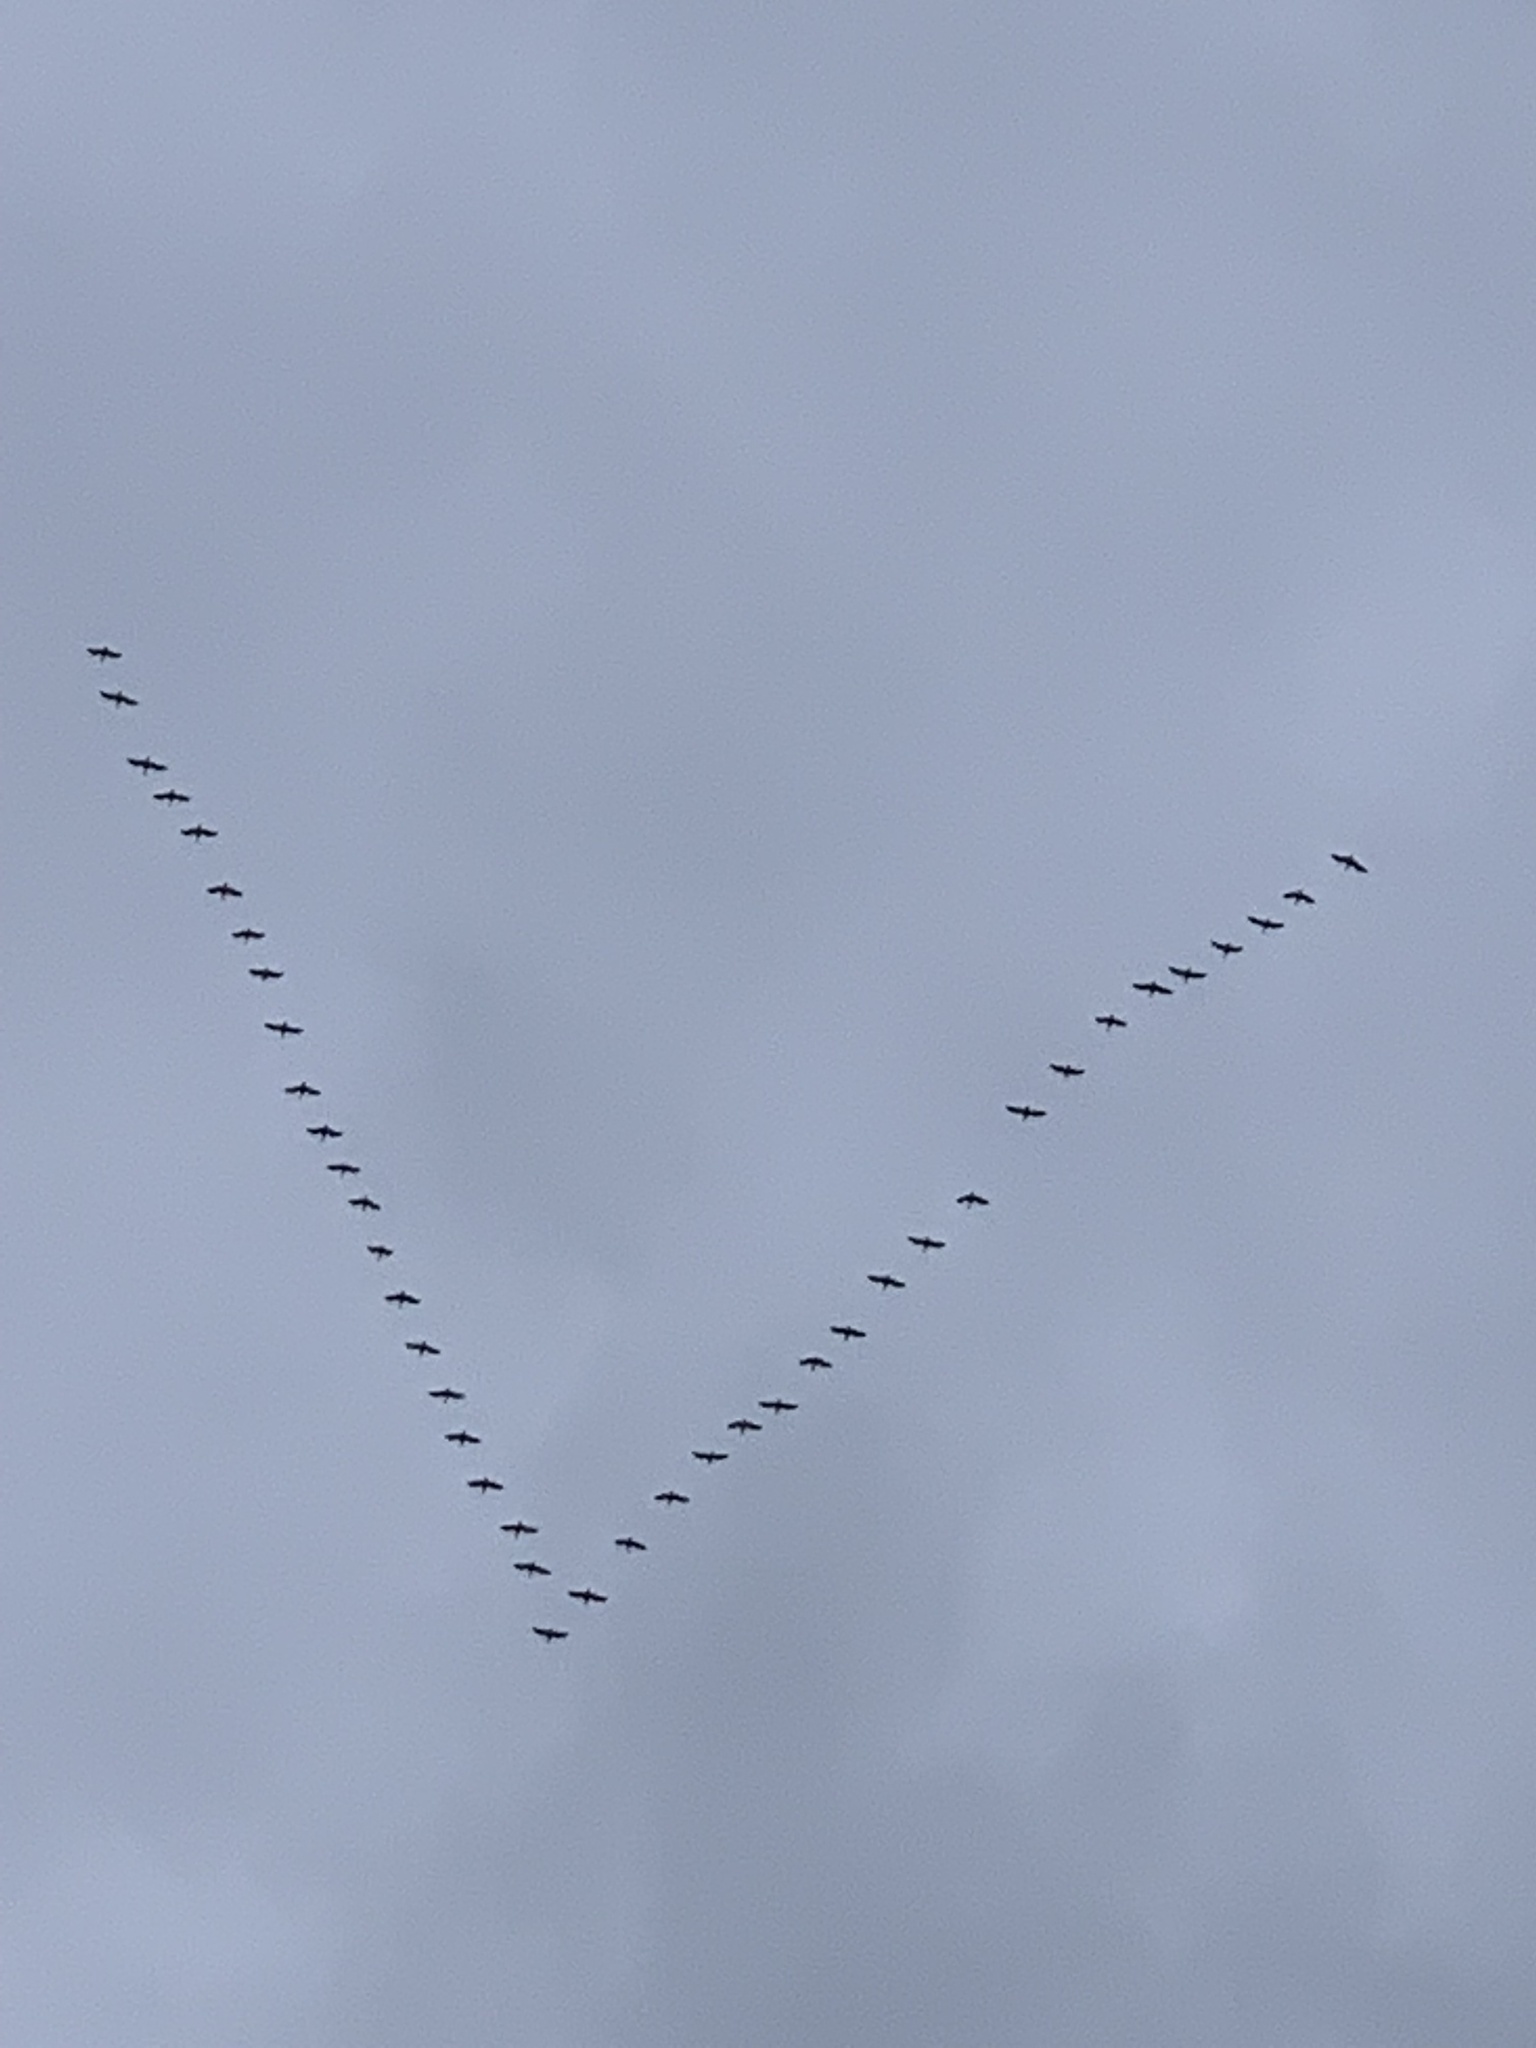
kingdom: Animalia
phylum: Chordata
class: Aves
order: Anseriformes
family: Anatidae
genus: Branta
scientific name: Branta canadensis
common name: Canada goose
